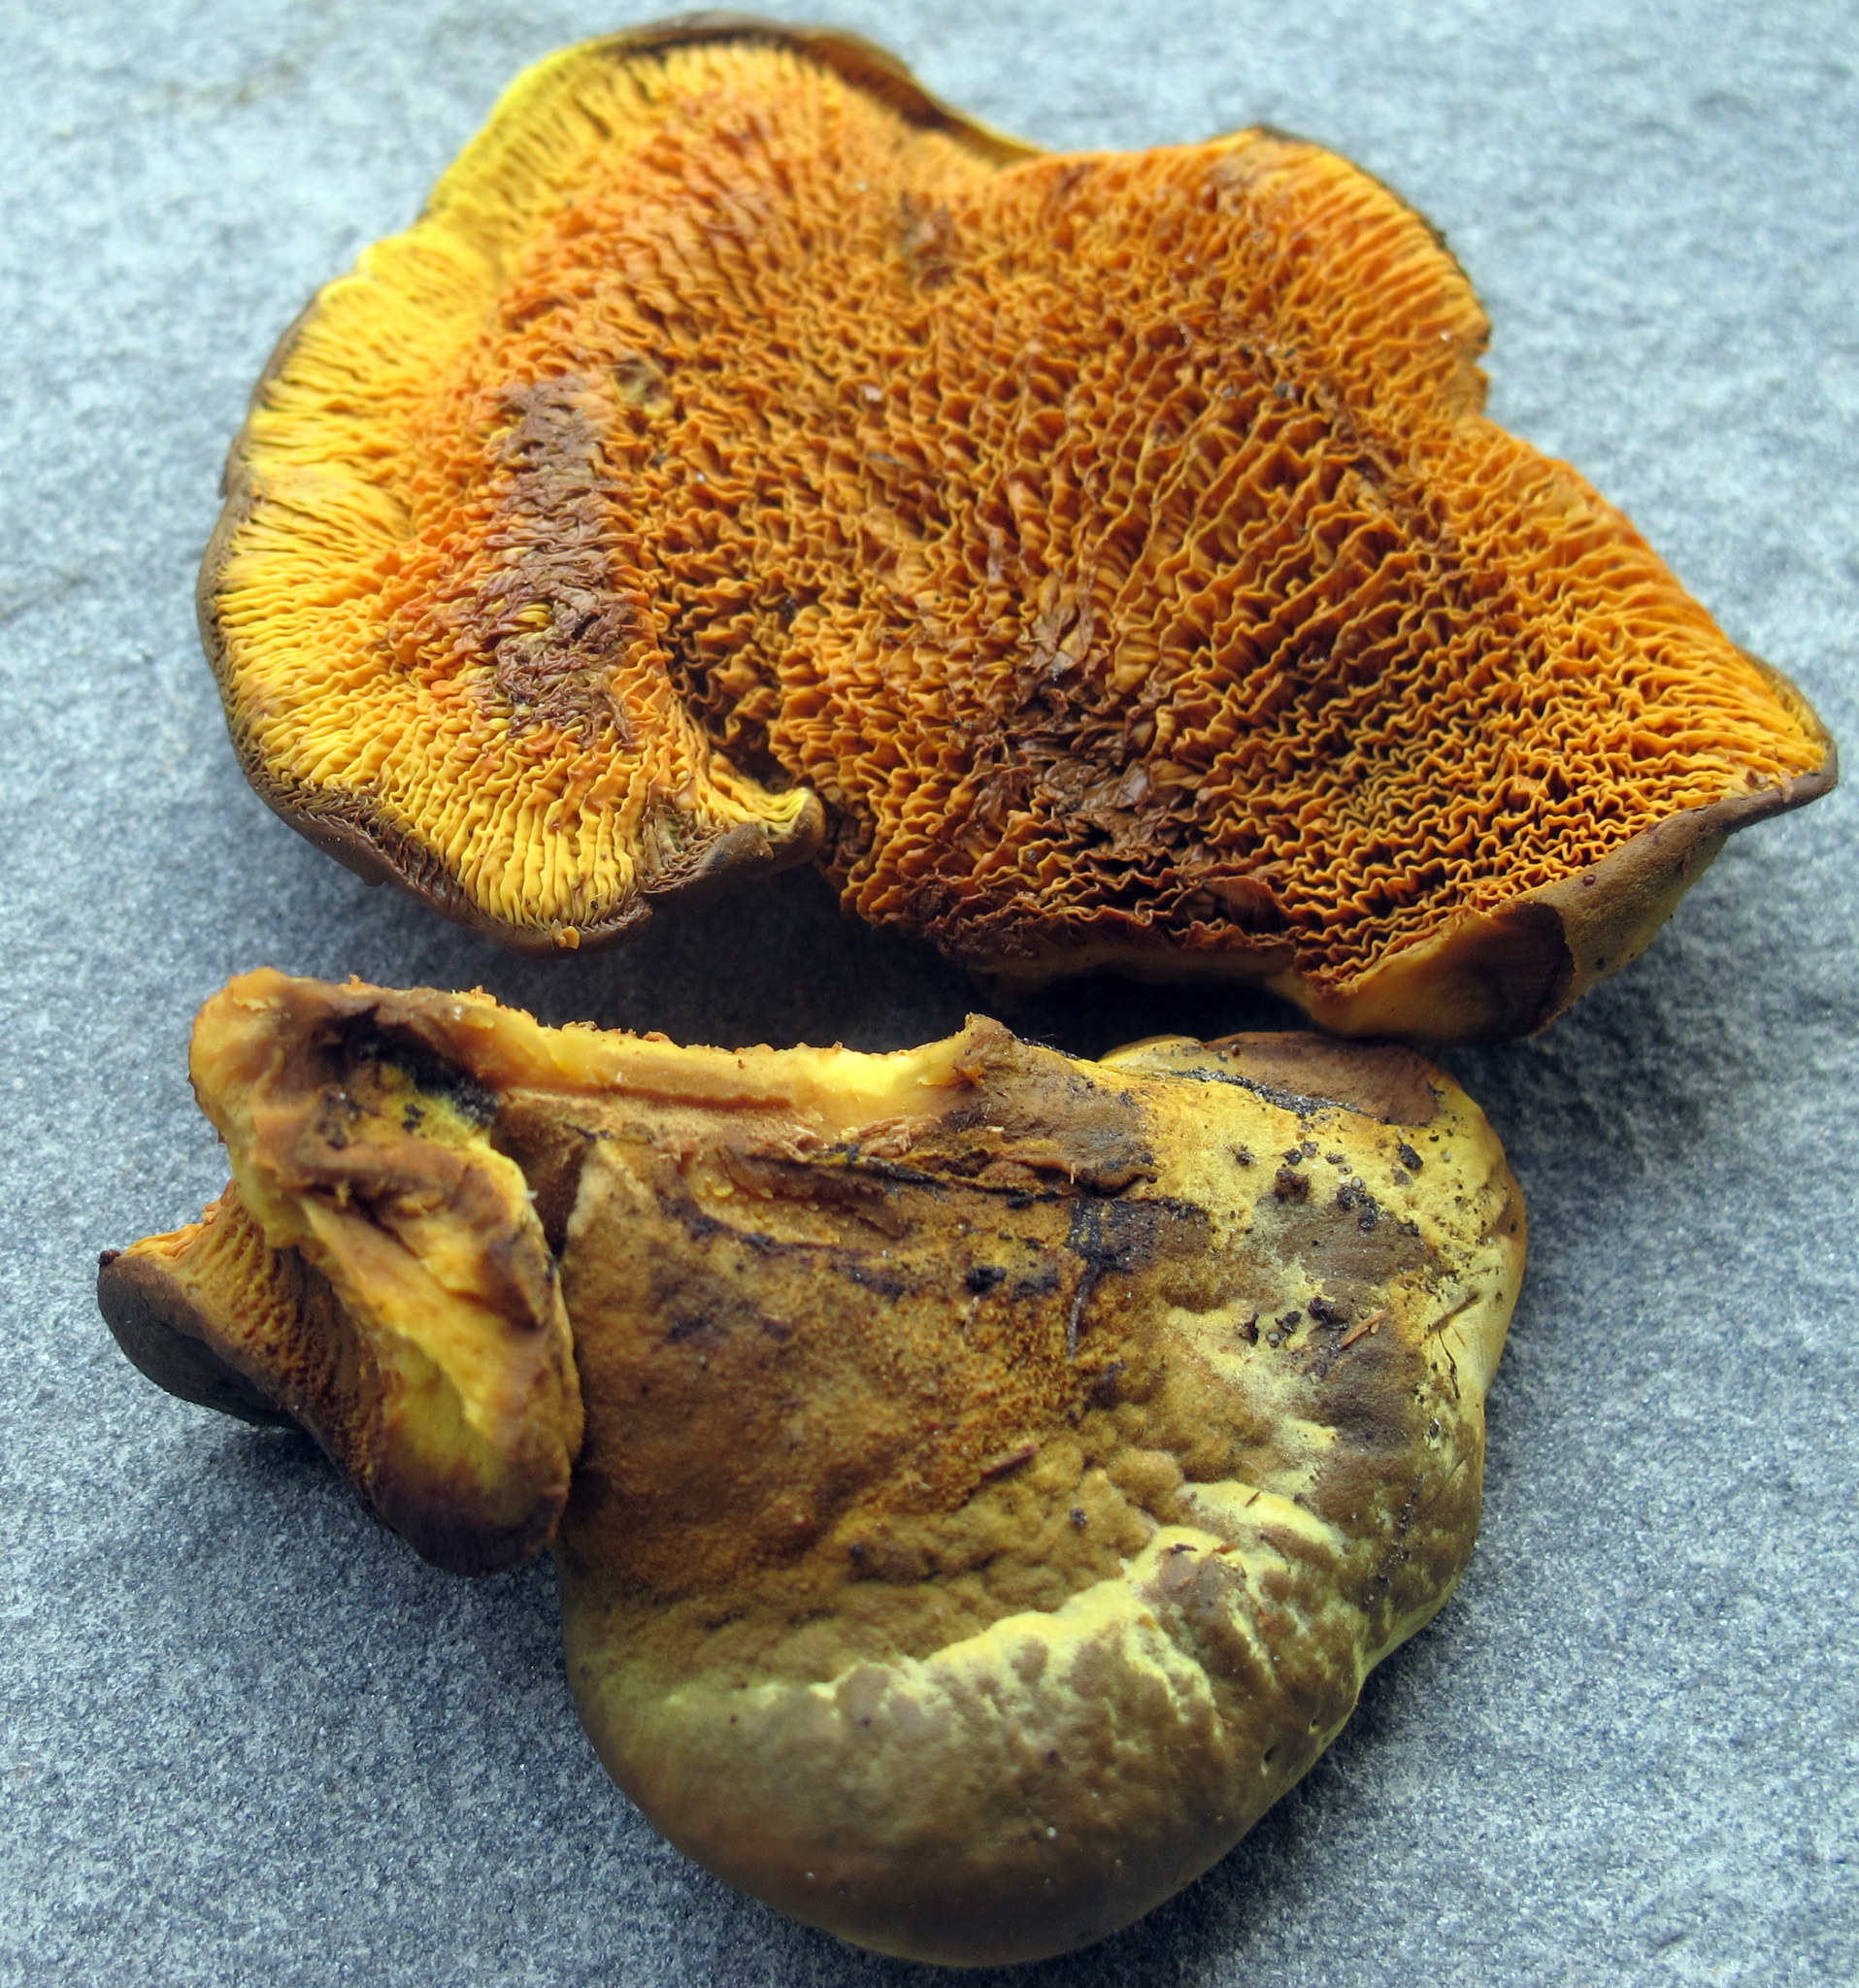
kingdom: Fungi
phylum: Basidiomycota
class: Agaricomycetes
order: Boletales
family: Paxillaceae
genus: Meiorganum
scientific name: Meiorganum curtisii
